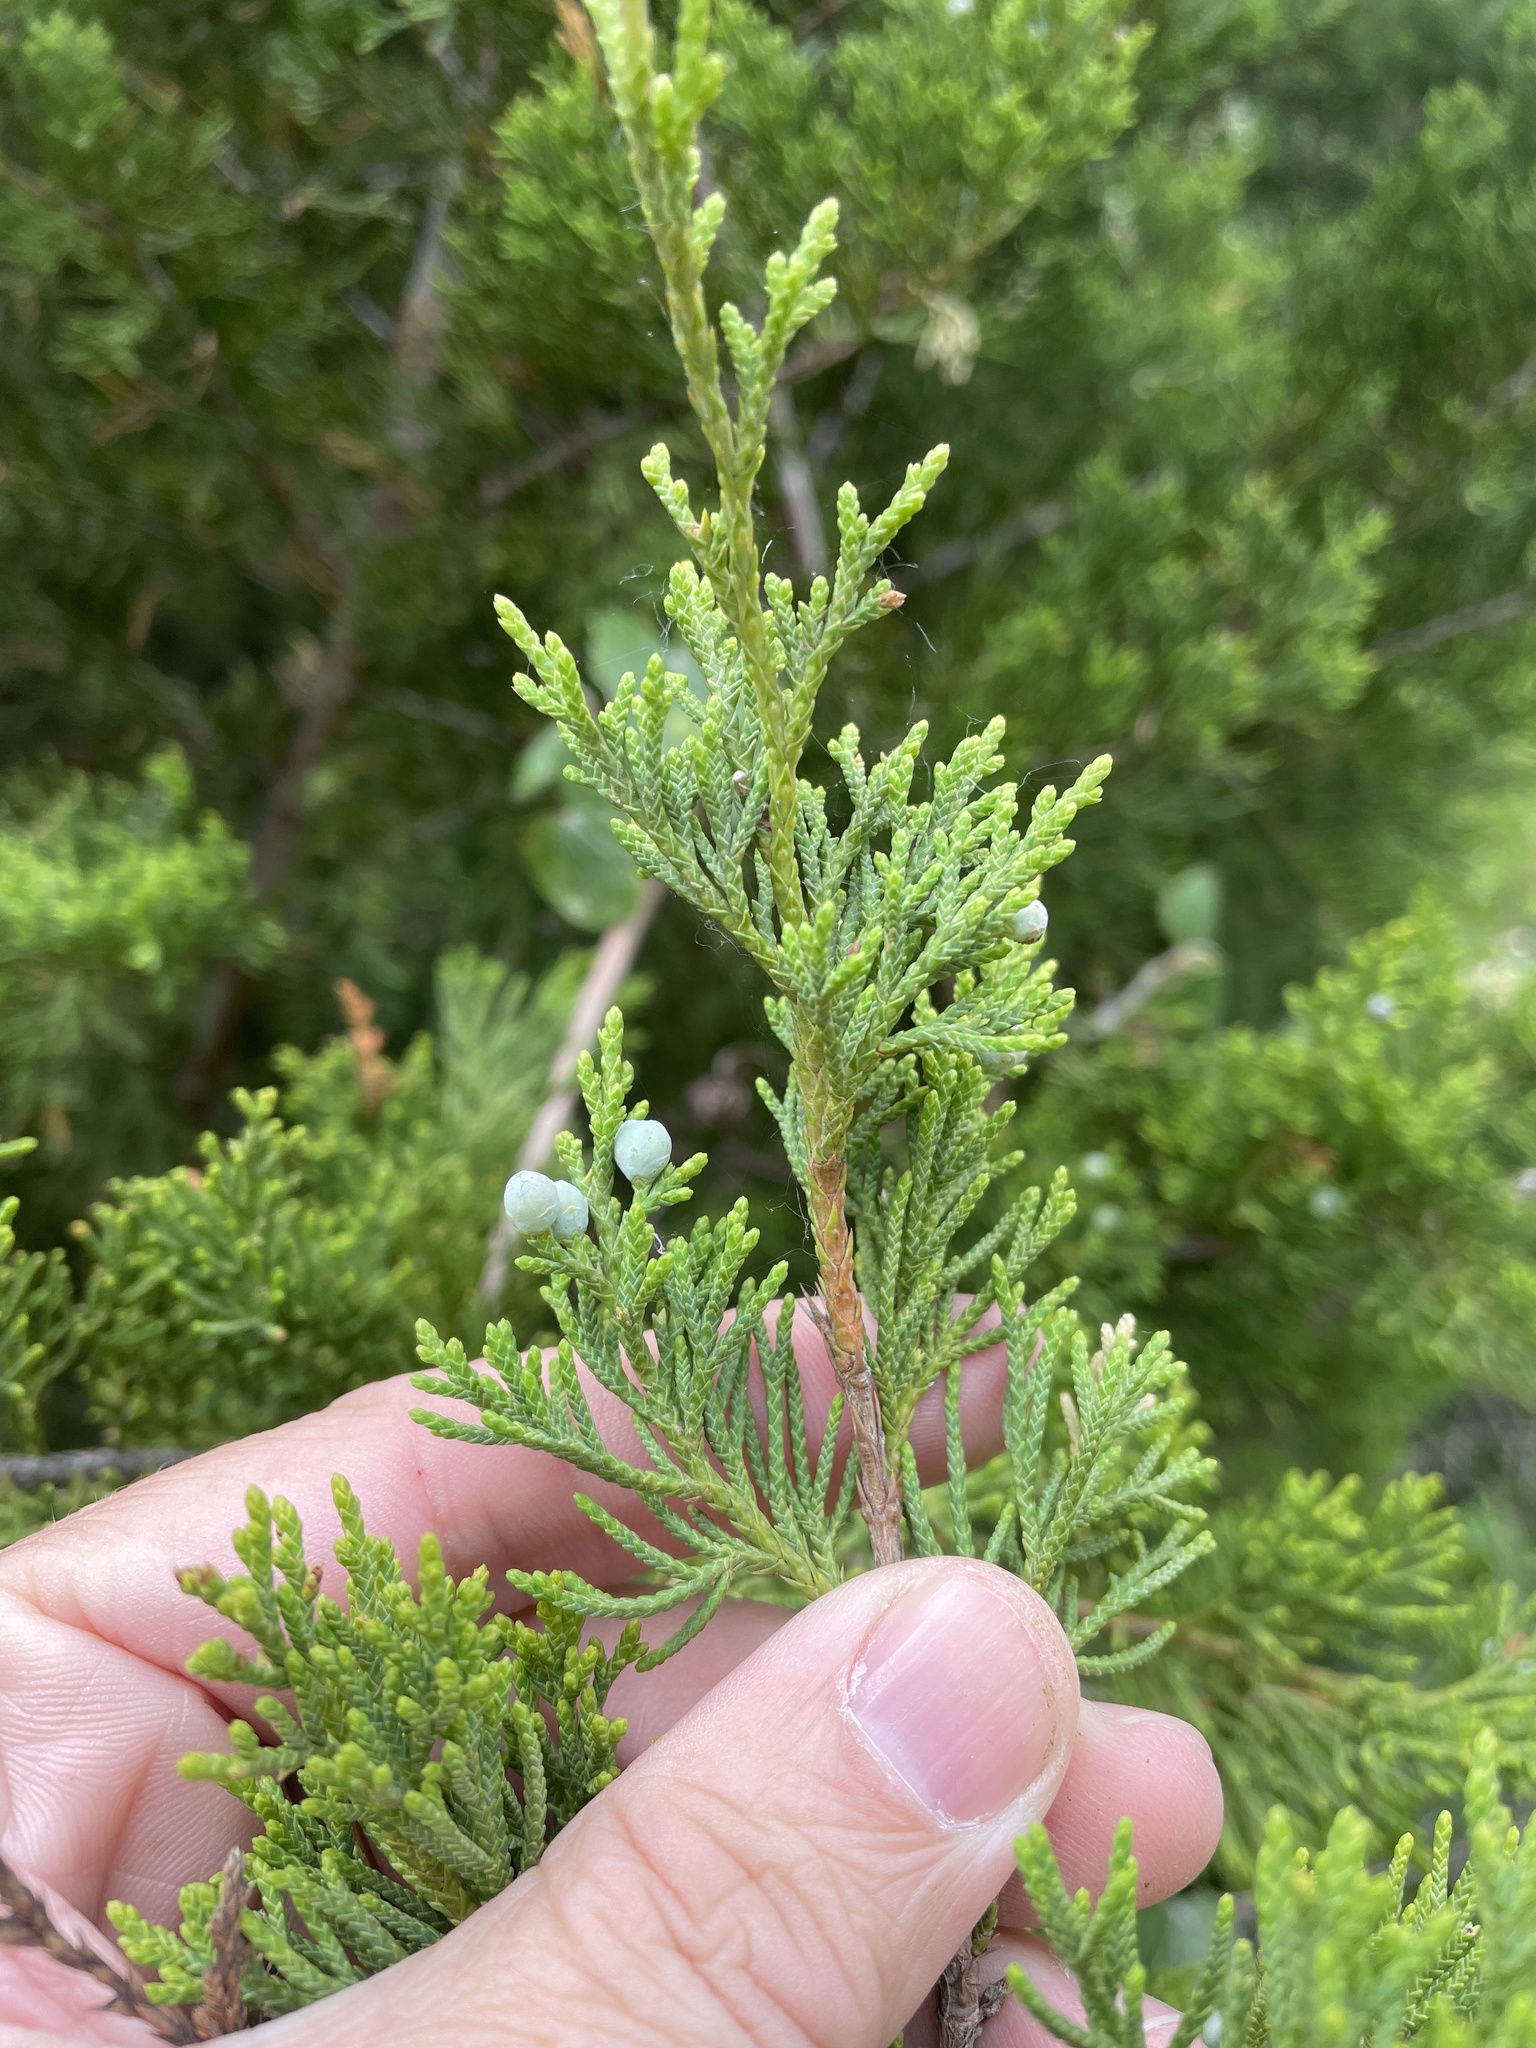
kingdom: Plantae
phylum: Tracheophyta
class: Pinopsida
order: Pinales
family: Cupressaceae
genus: Juniperus
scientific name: Juniperus virginiana
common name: Red juniper
